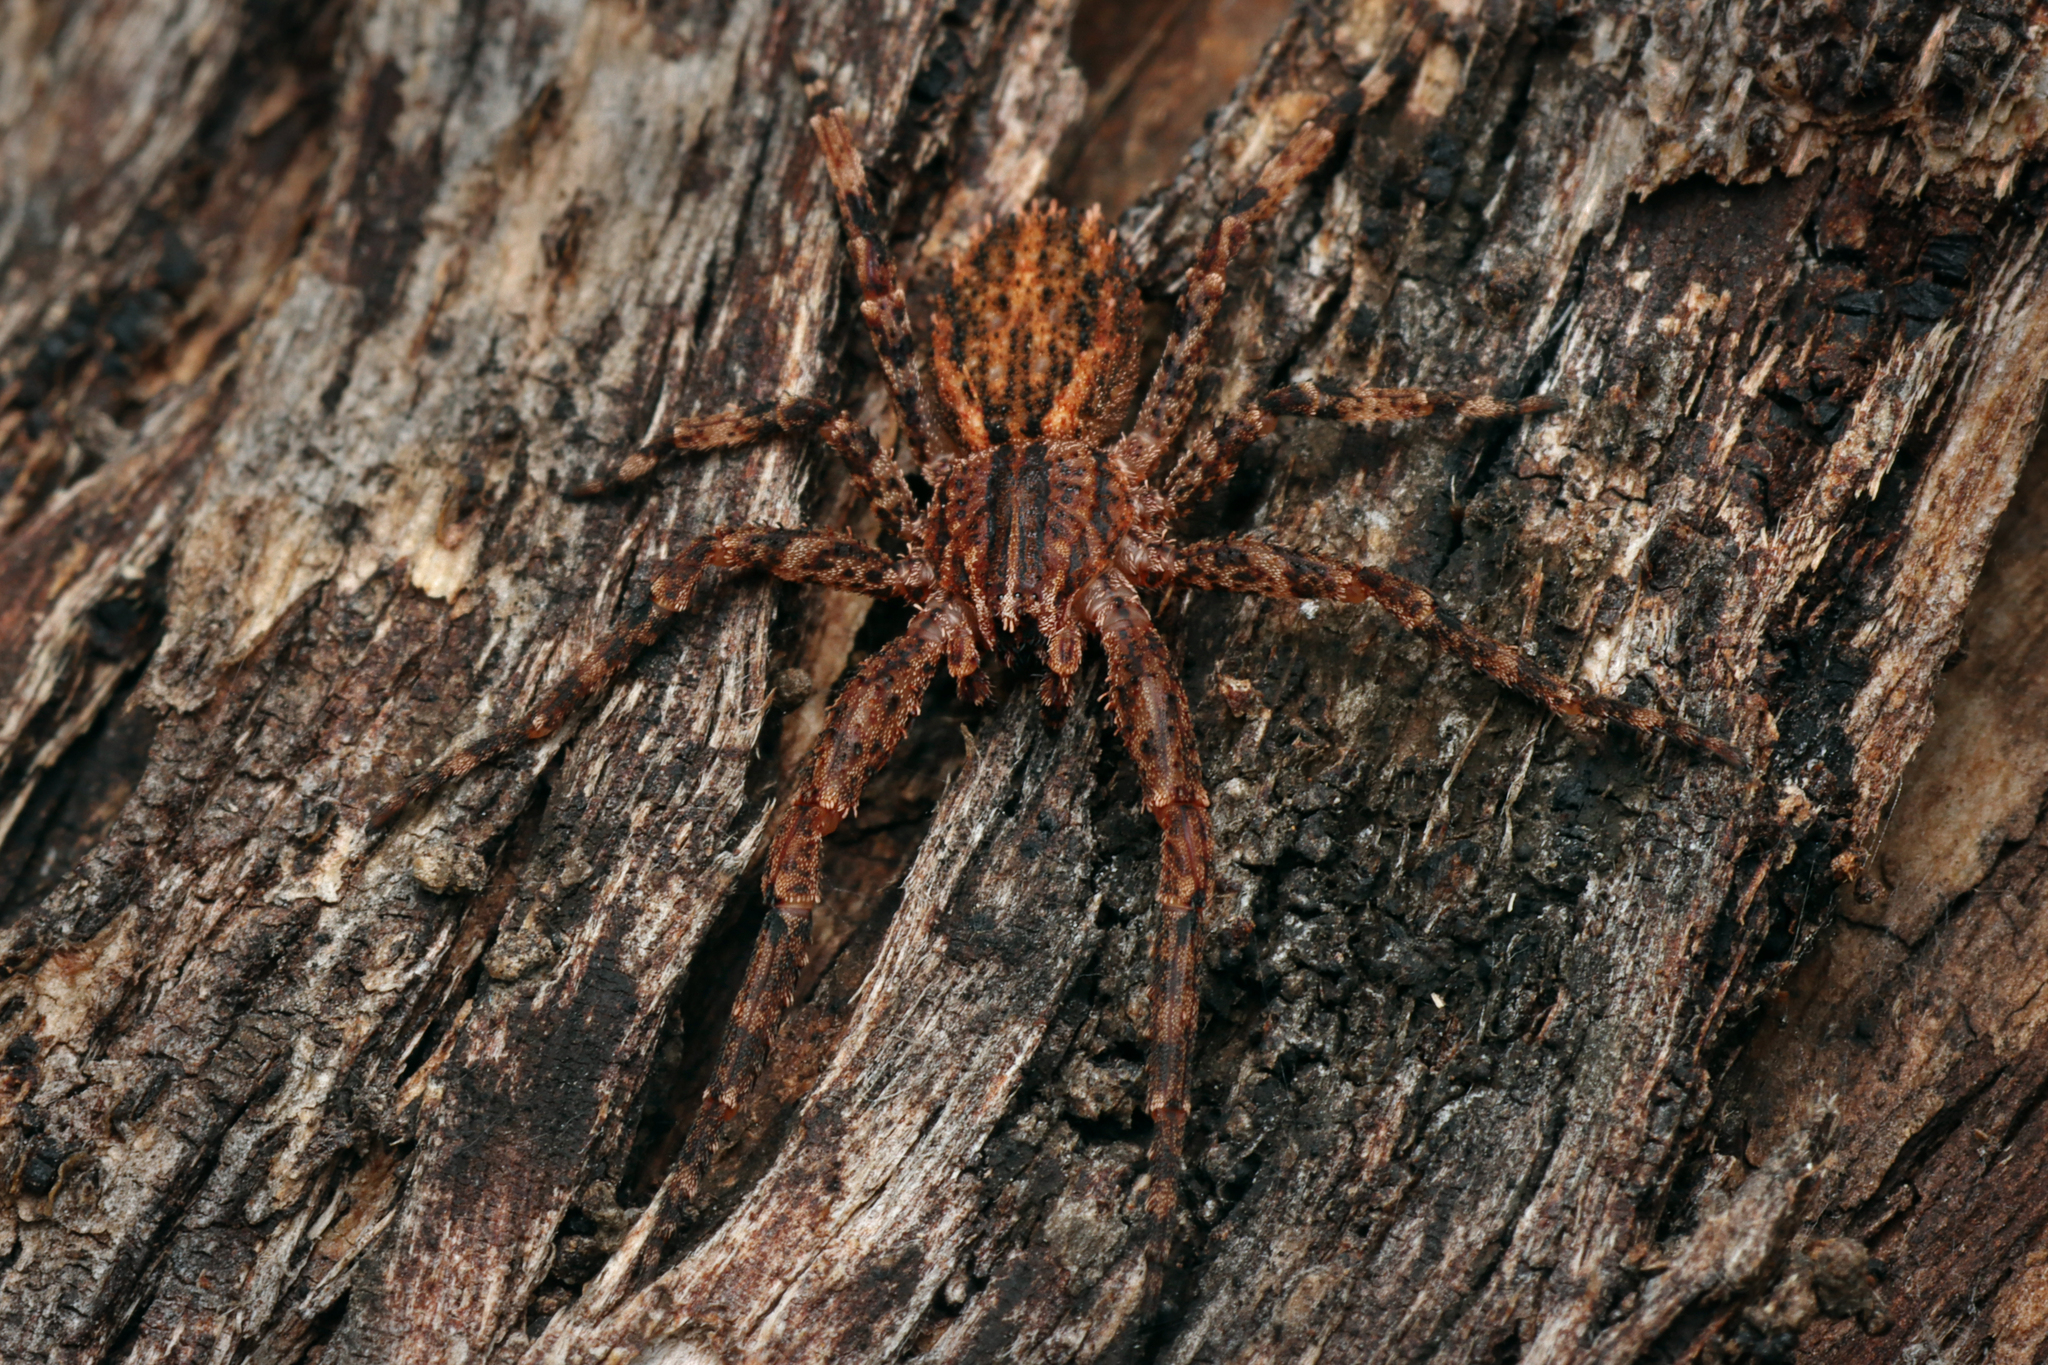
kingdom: Animalia
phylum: Arthropoda
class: Arachnida
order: Araneae
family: Thomisidae
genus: Isala
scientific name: Isala cambridgei
